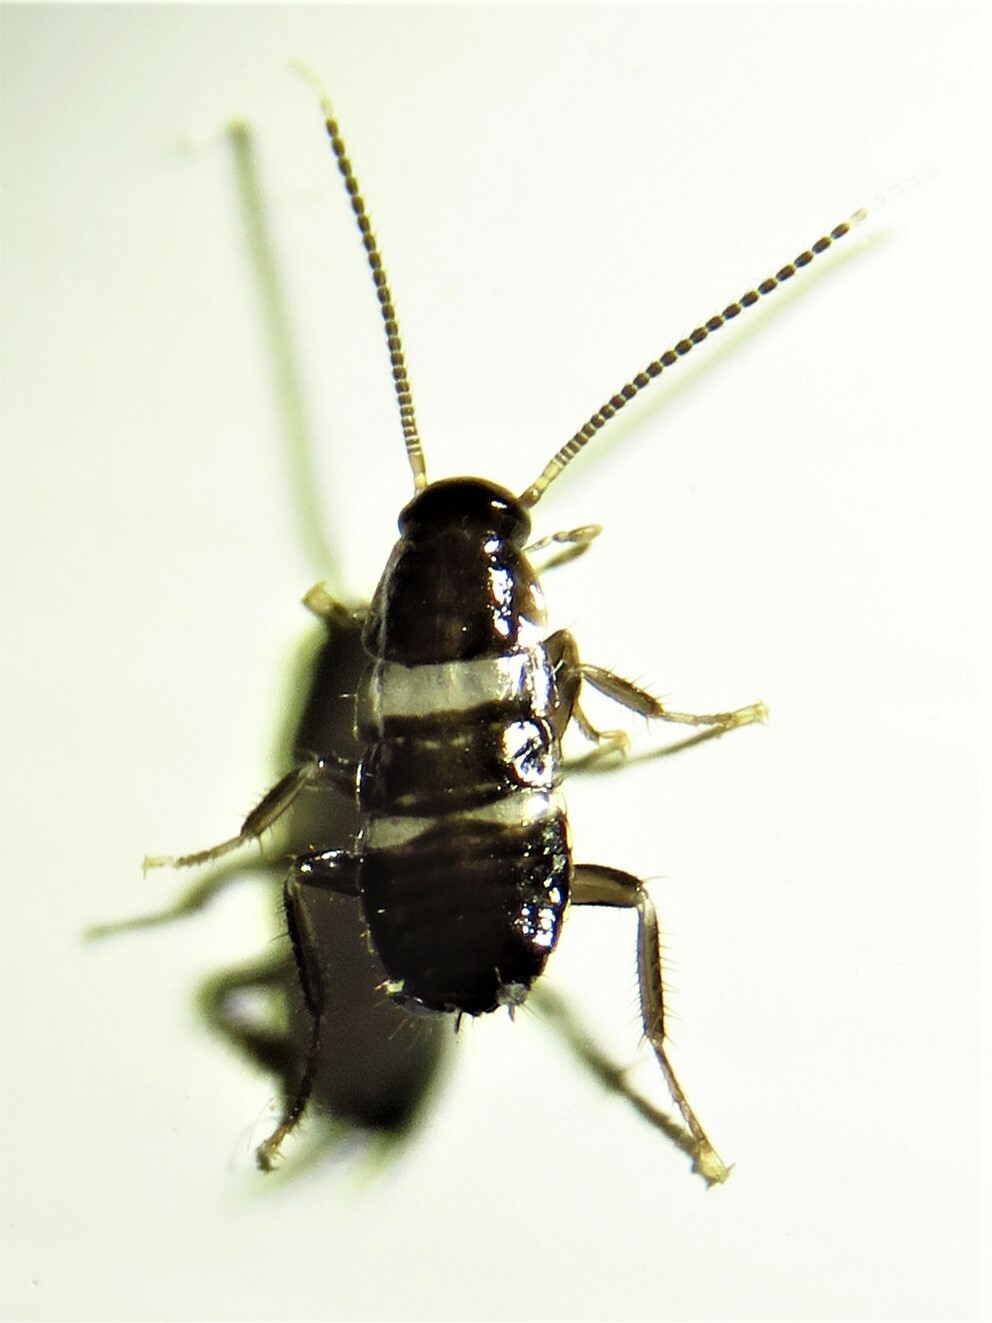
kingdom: Animalia
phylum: Arthropoda
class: Insecta
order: Blattodea
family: Blattidae
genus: Periplaneta
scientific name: Periplaneta fuliginosa
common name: Smokeybrown cockroad
